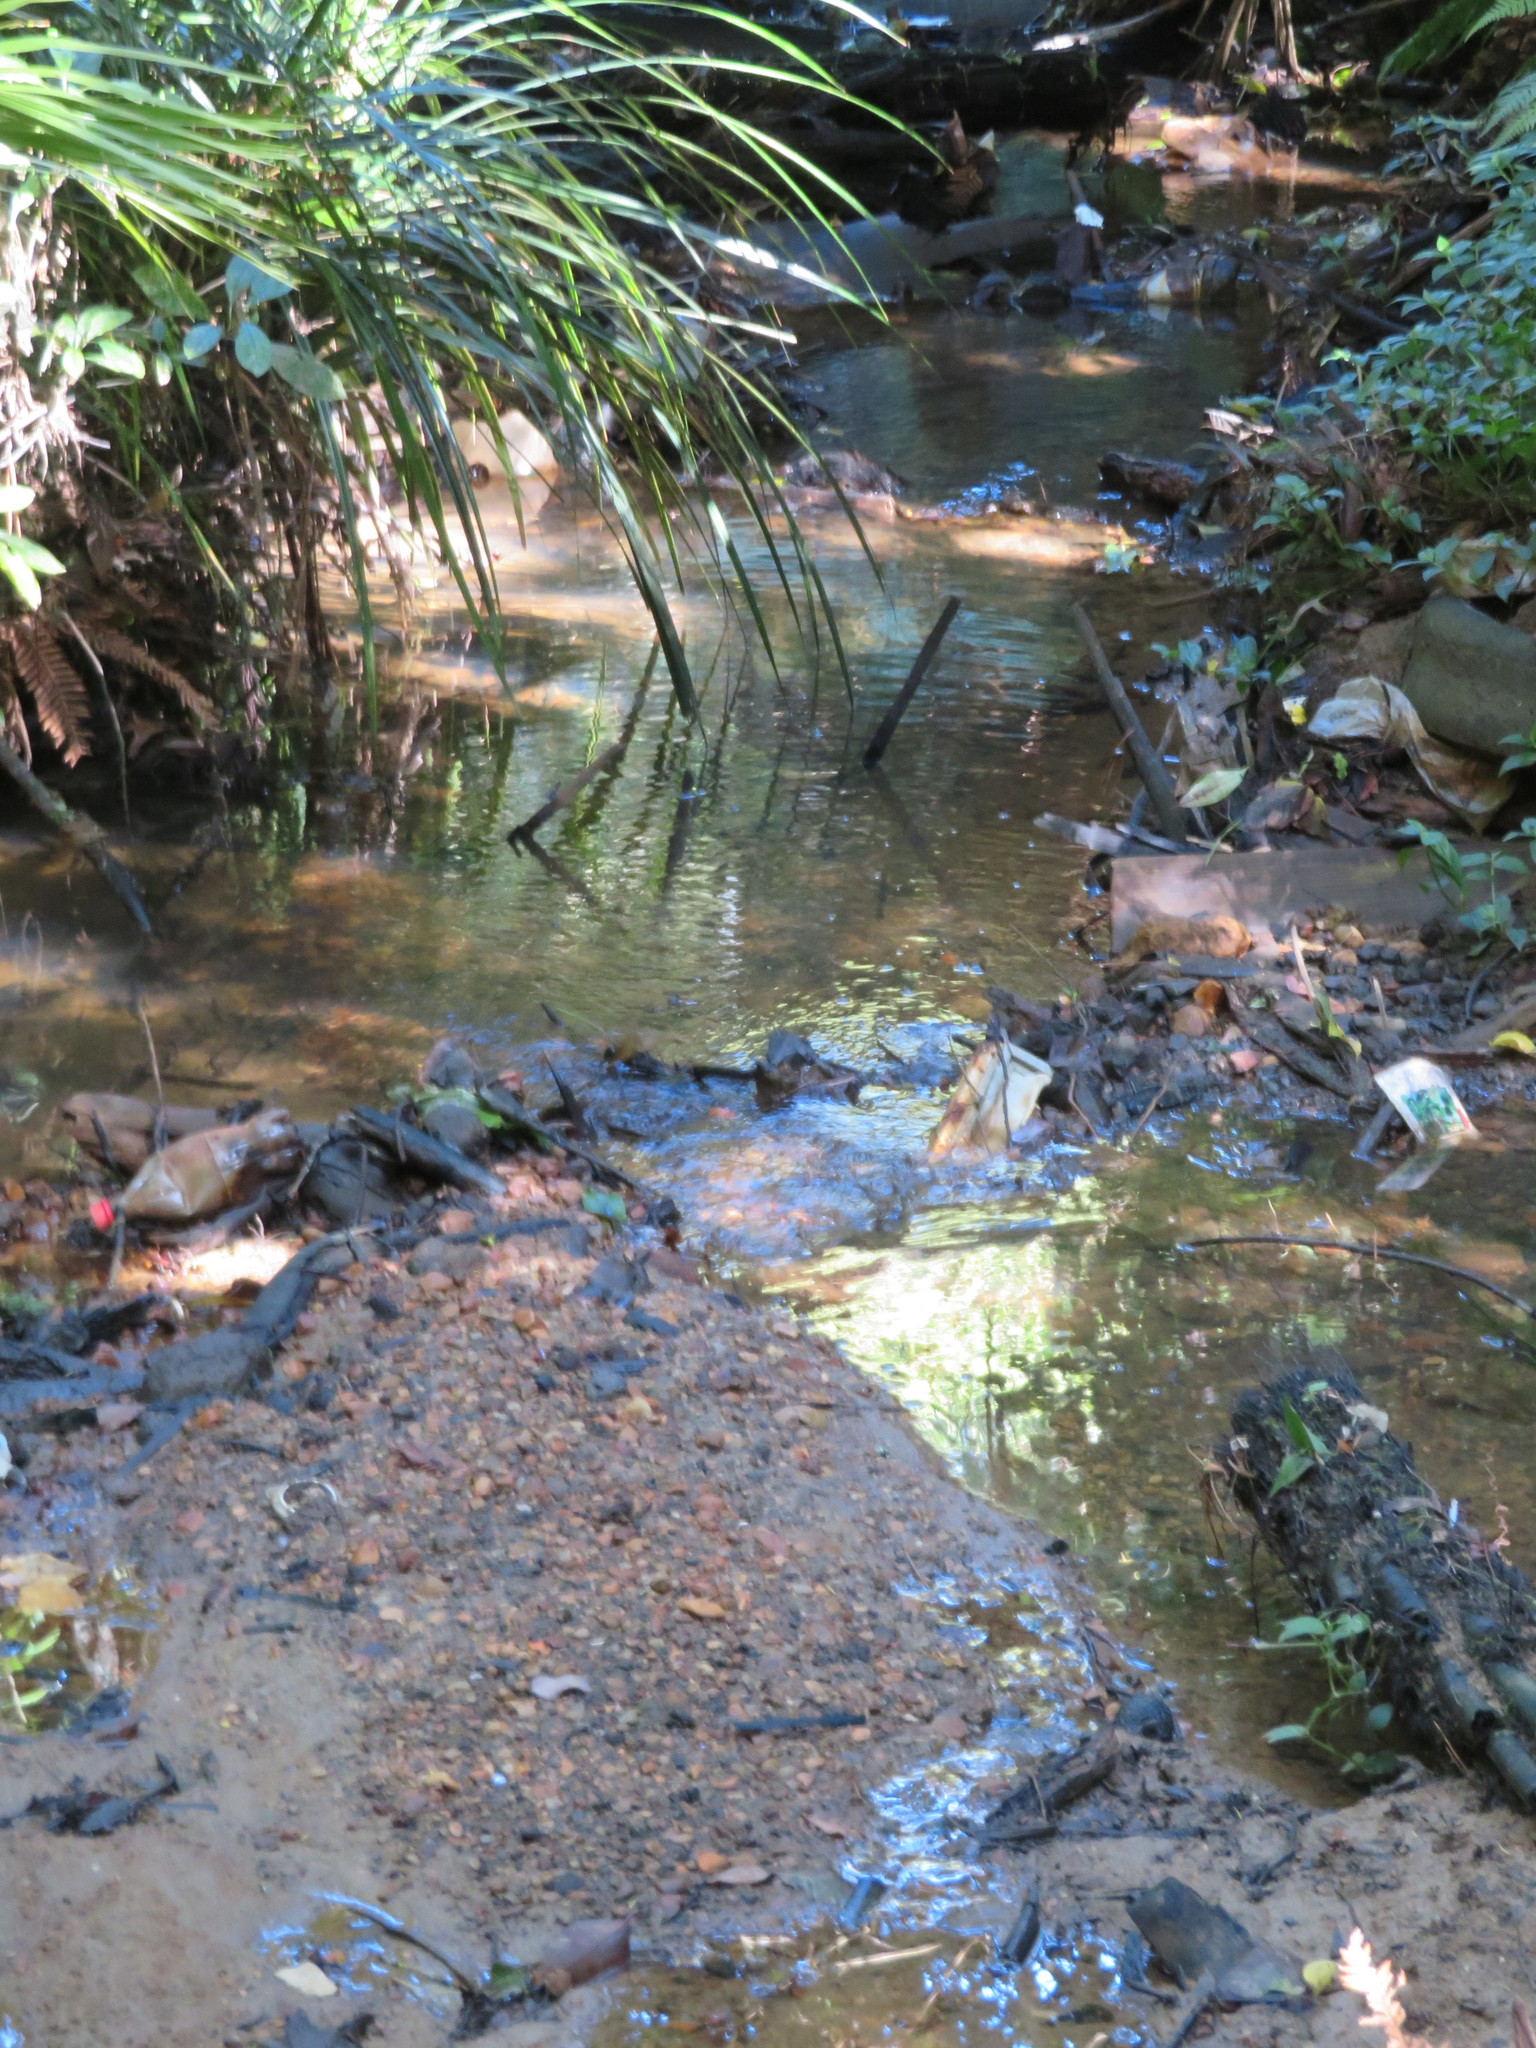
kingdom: Plantae
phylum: Tracheophyta
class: Liliopsida
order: Commelinales
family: Commelinaceae
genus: Tradescantia
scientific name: Tradescantia fluminensis
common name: Wandering-jew
